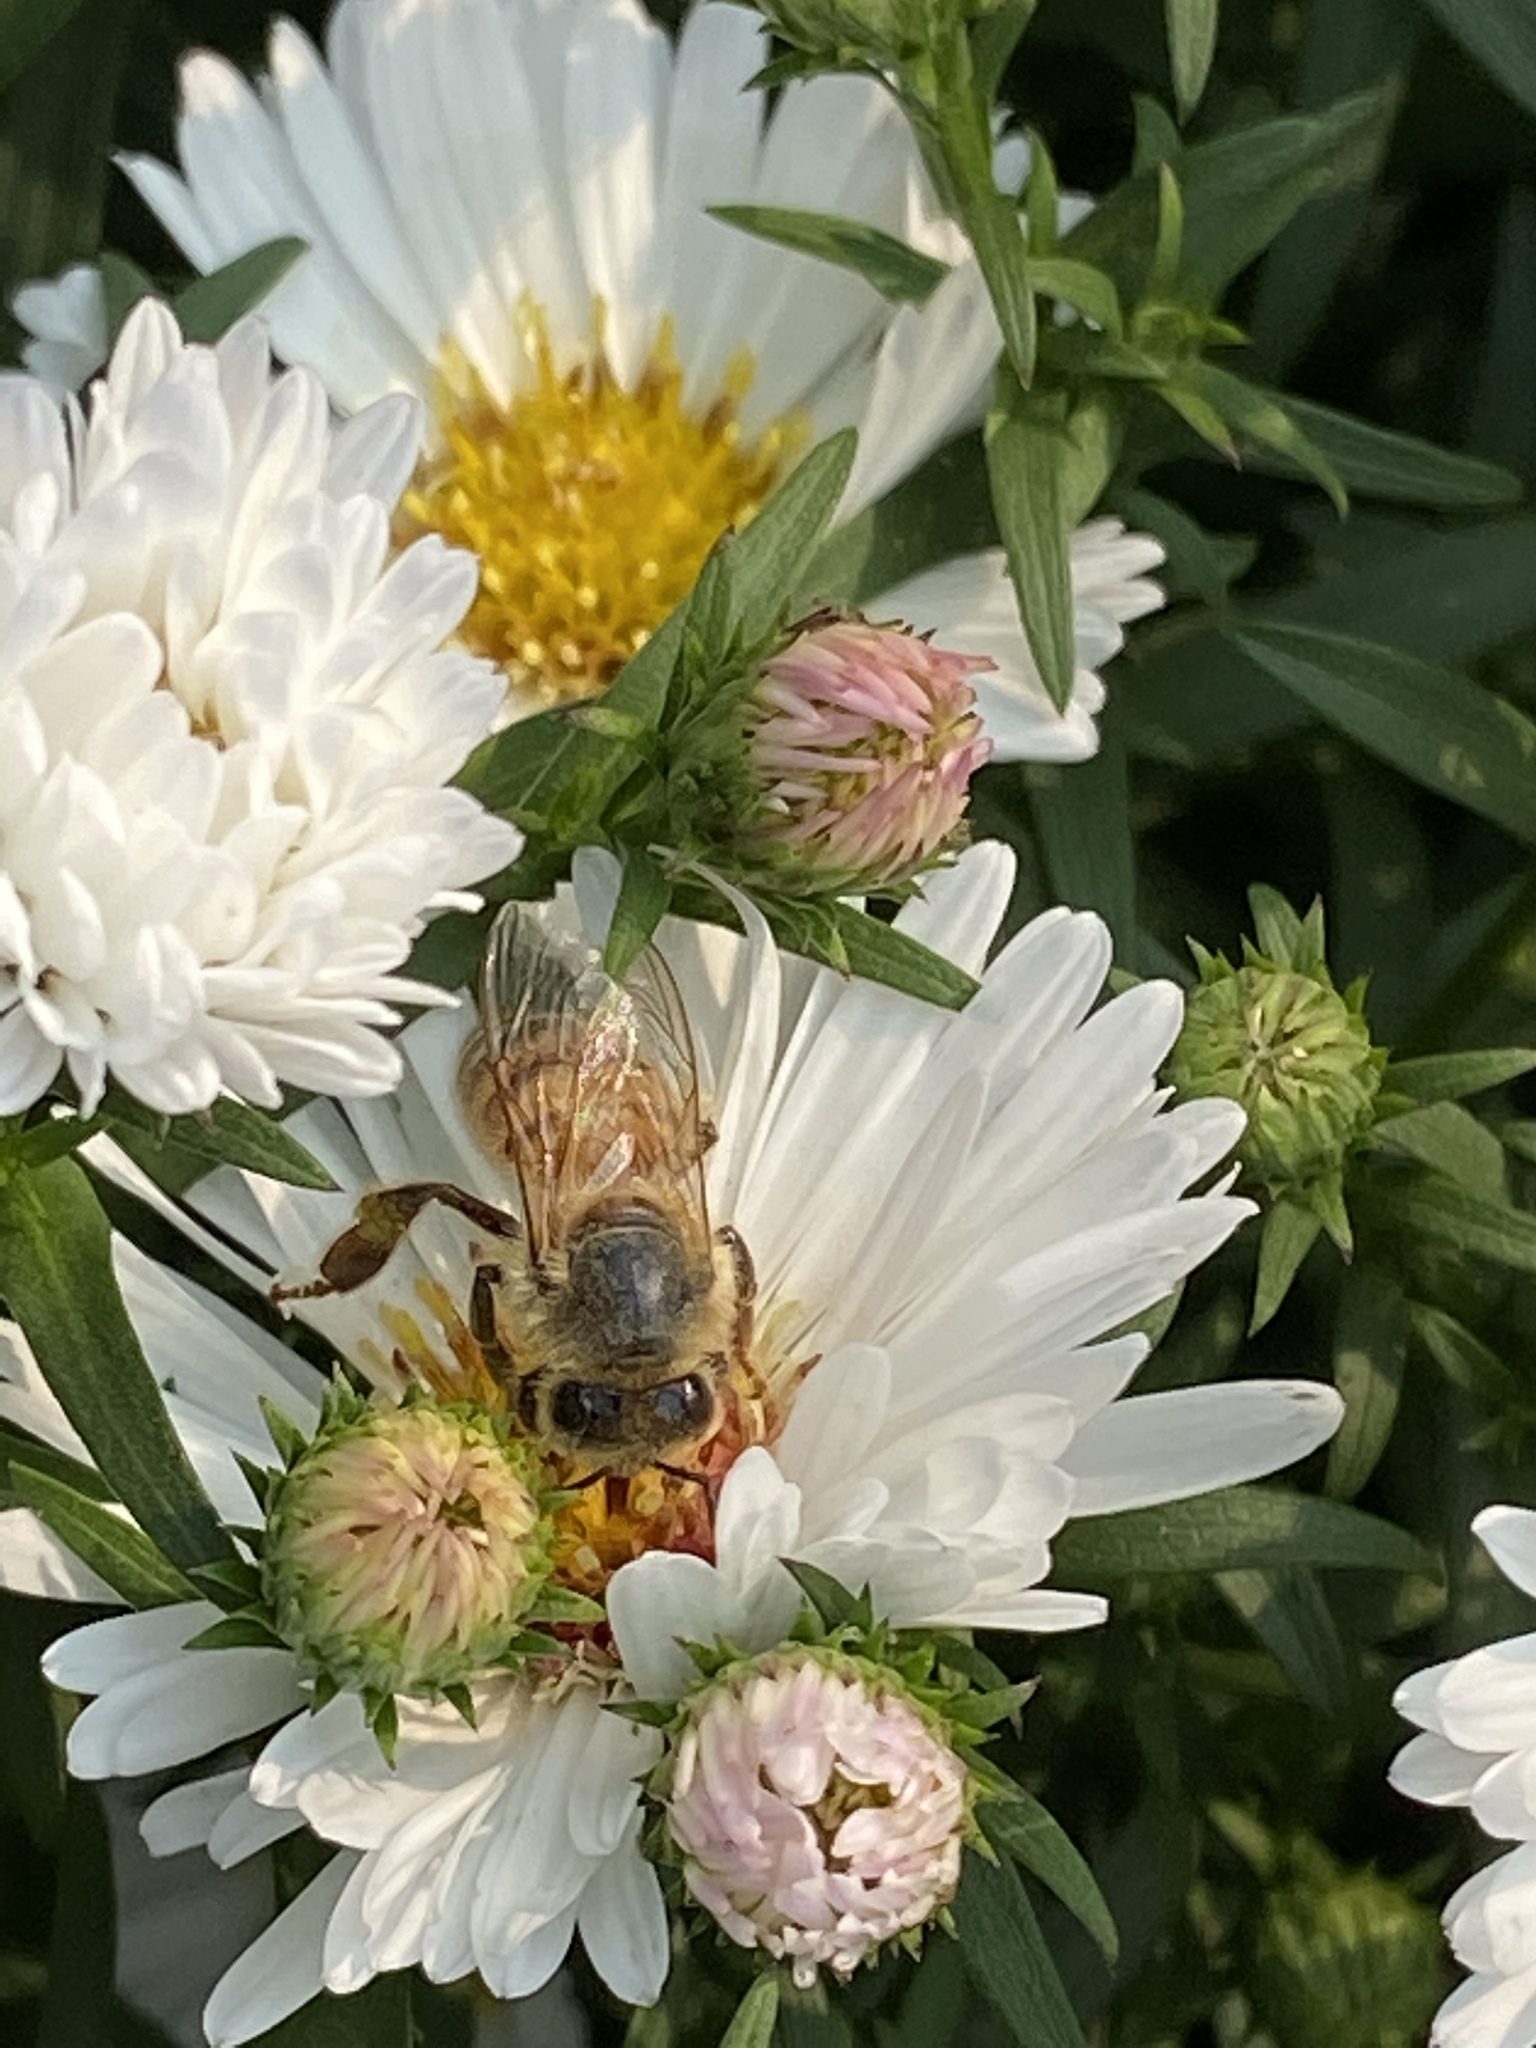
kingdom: Animalia
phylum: Arthropoda
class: Insecta
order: Hymenoptera
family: Apidae
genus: Apis
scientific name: Apis mellifera
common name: Honey bee
